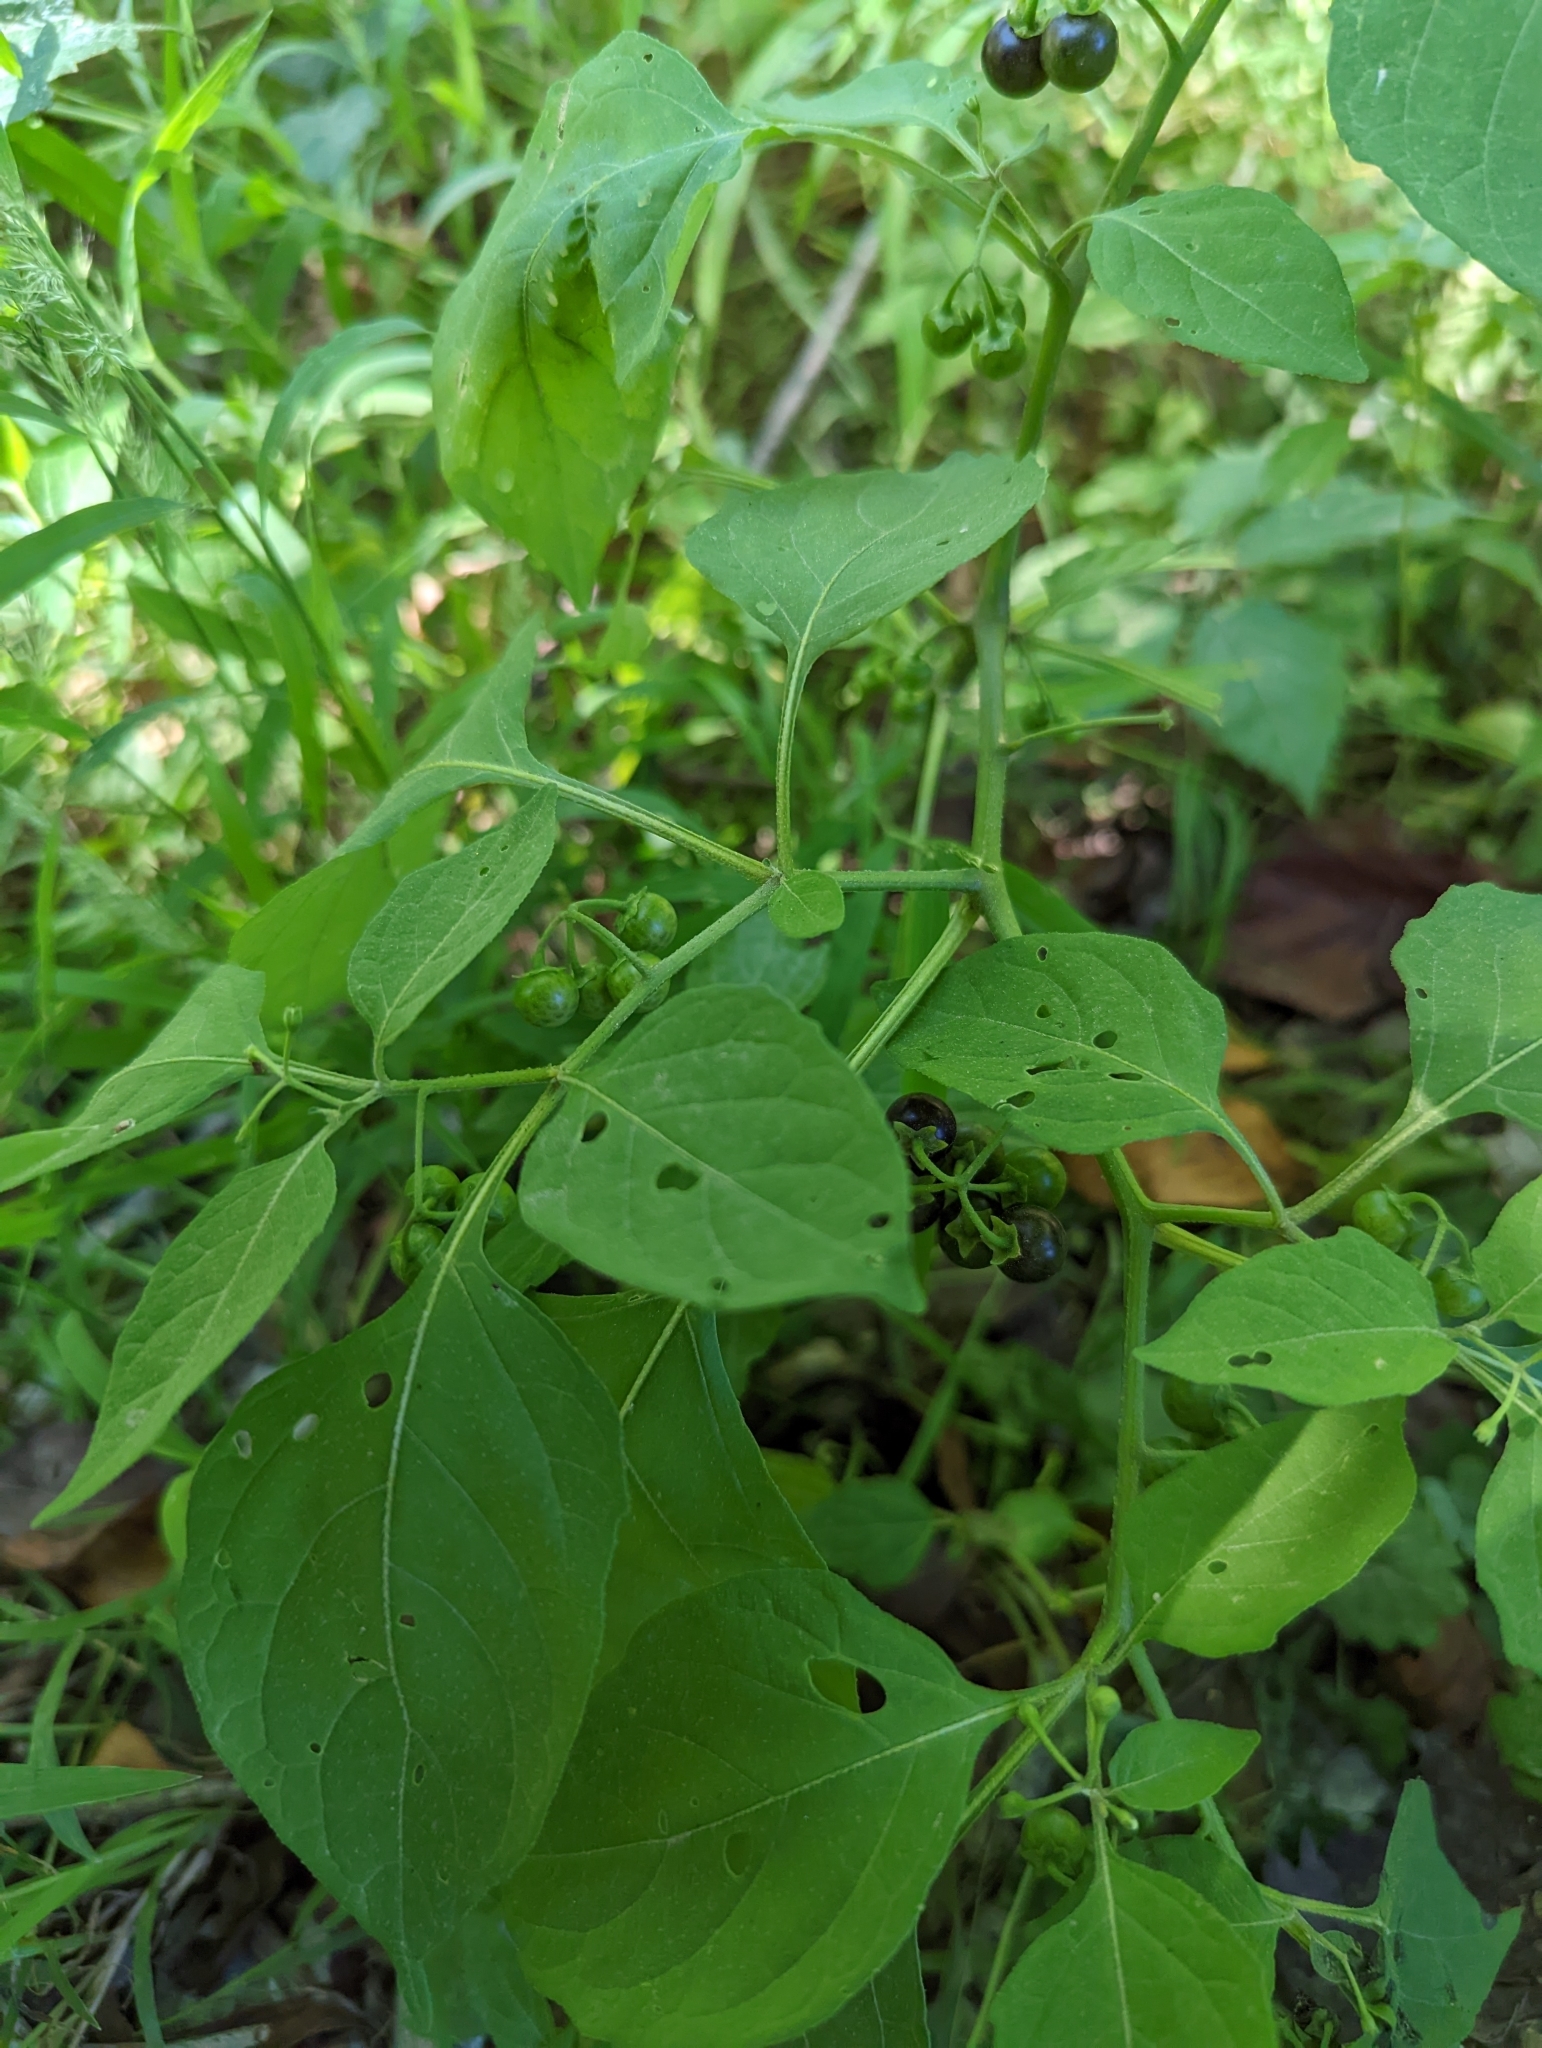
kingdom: Plantae
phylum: Tracheophyta
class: Magnoliopsida
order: Solanales
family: Solanaceae
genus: Solanum
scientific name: Solanum emulans
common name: Eastern black nightshade
